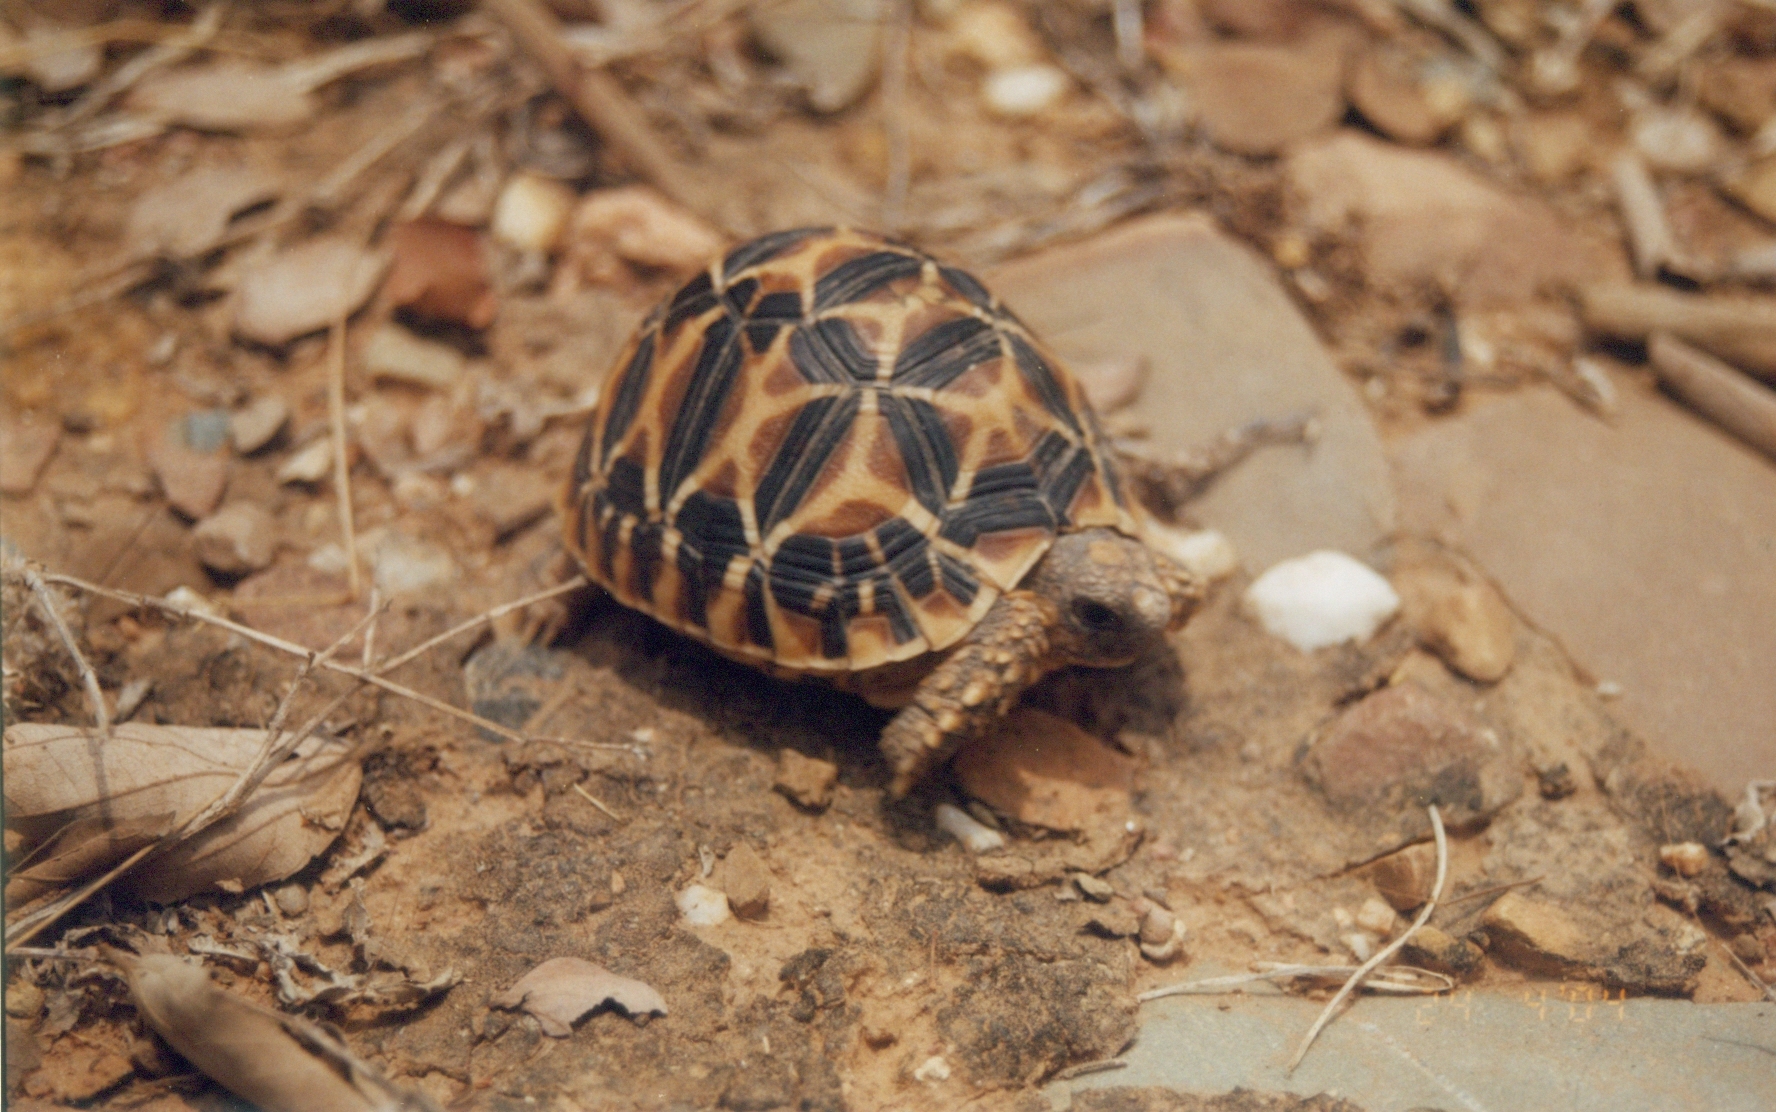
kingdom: Animalia
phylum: Chordata
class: Testudines
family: Testudinidae
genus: Geochelone
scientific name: Geochelone elegans
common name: Indian star tortoise
